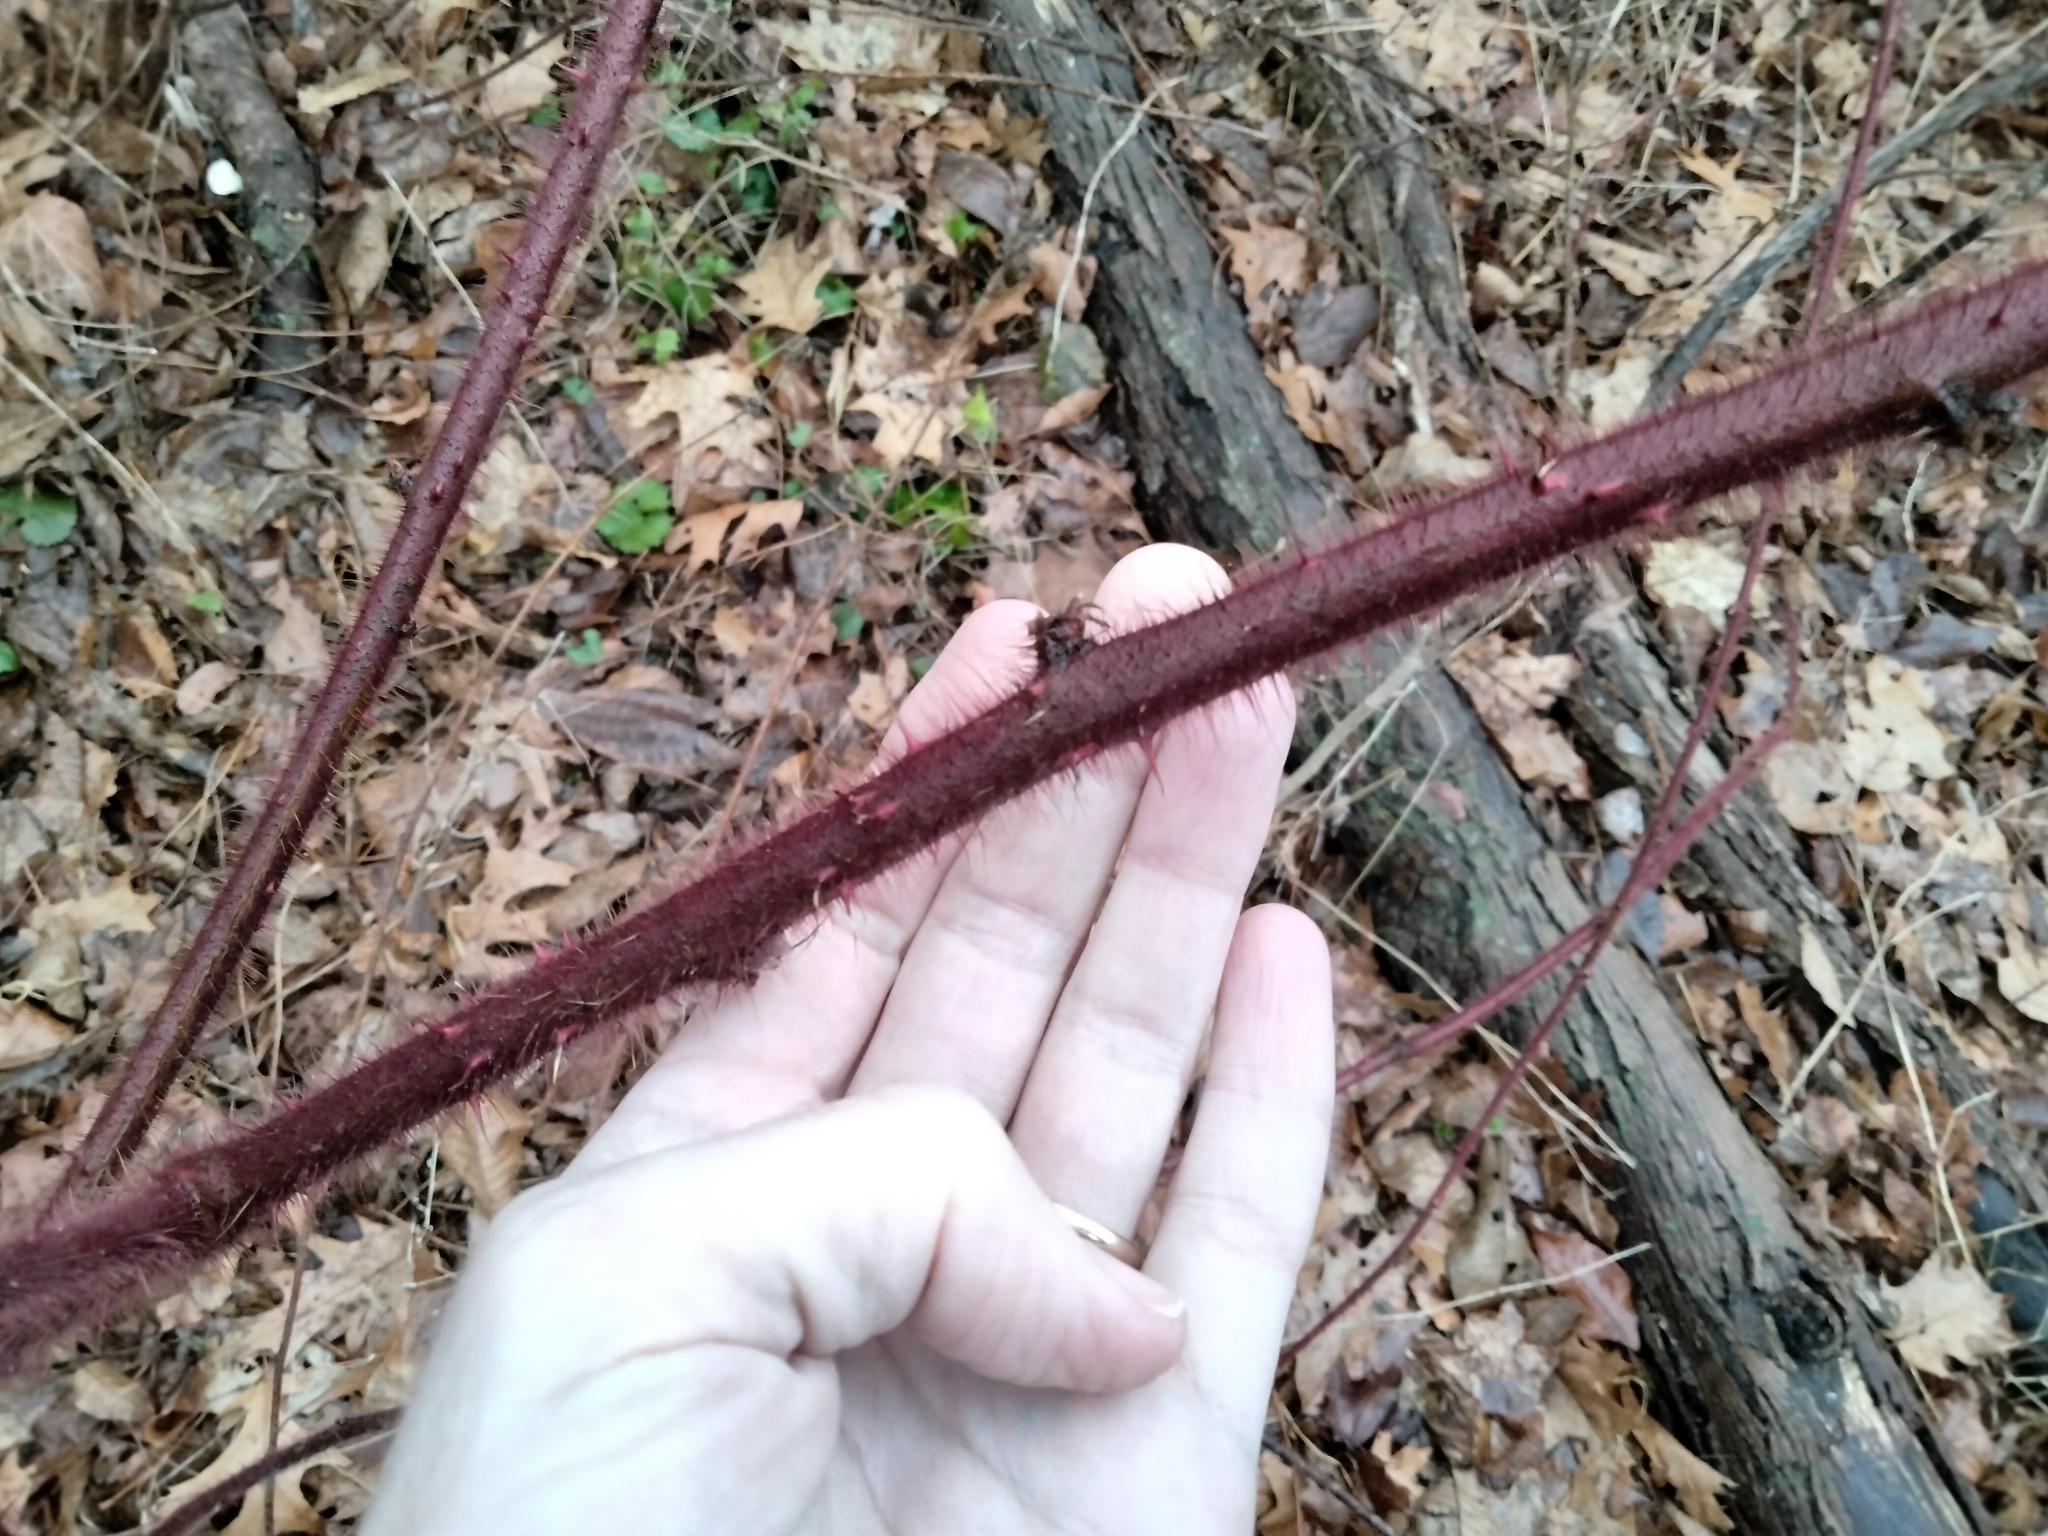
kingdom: Plantae
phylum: Tracheophyta
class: Magnoliopsida
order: Rosales
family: Rosaceae
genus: Rubus
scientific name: Rubus phoenicolasius
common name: Japanese wineberry
